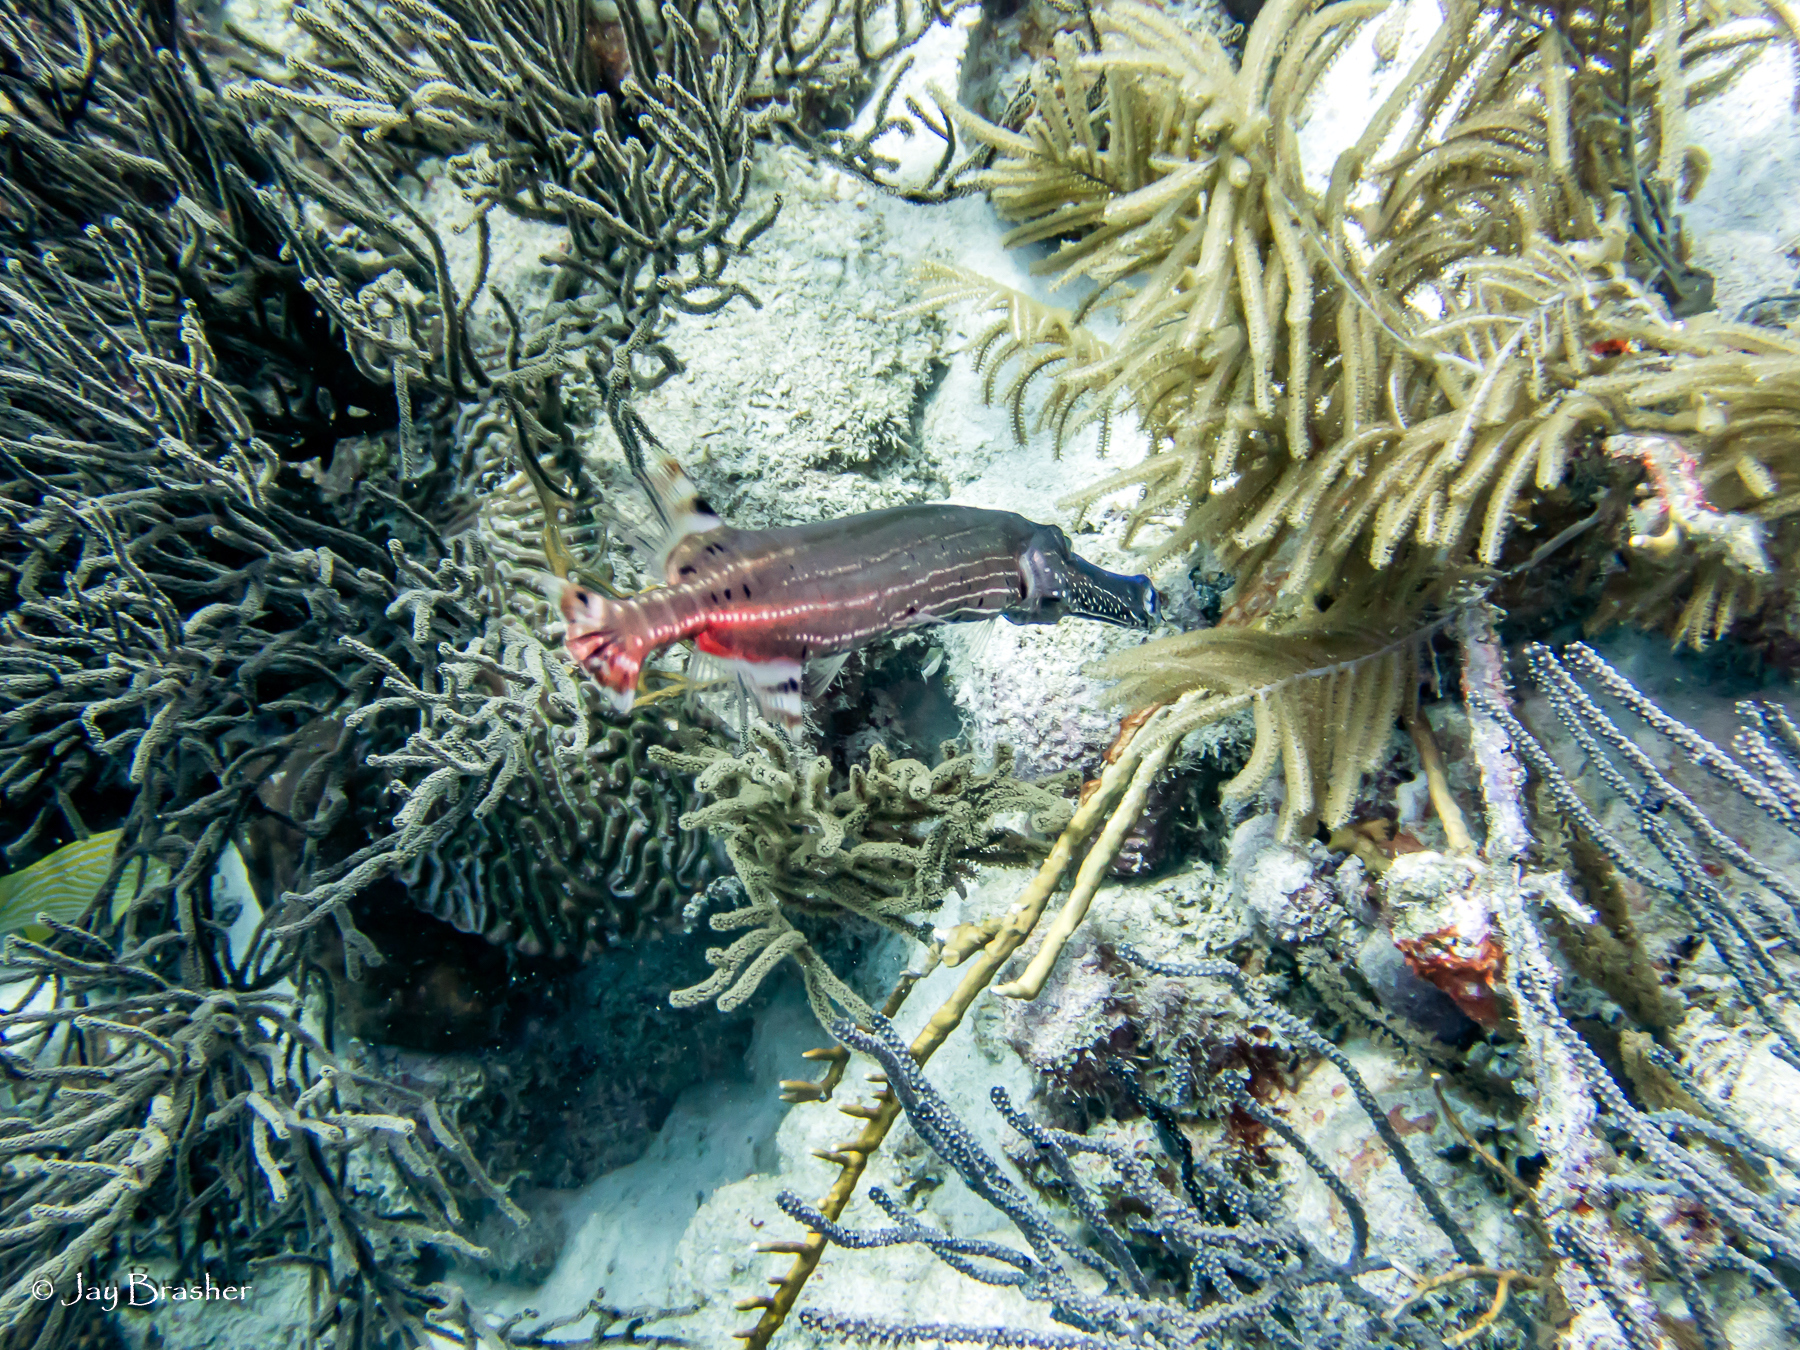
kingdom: Animalia
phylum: Chordata
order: Syngnathiformes
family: Aulostomidae
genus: Aulostomus
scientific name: Aulostomus maculatus
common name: West atlantic trumpetfish
